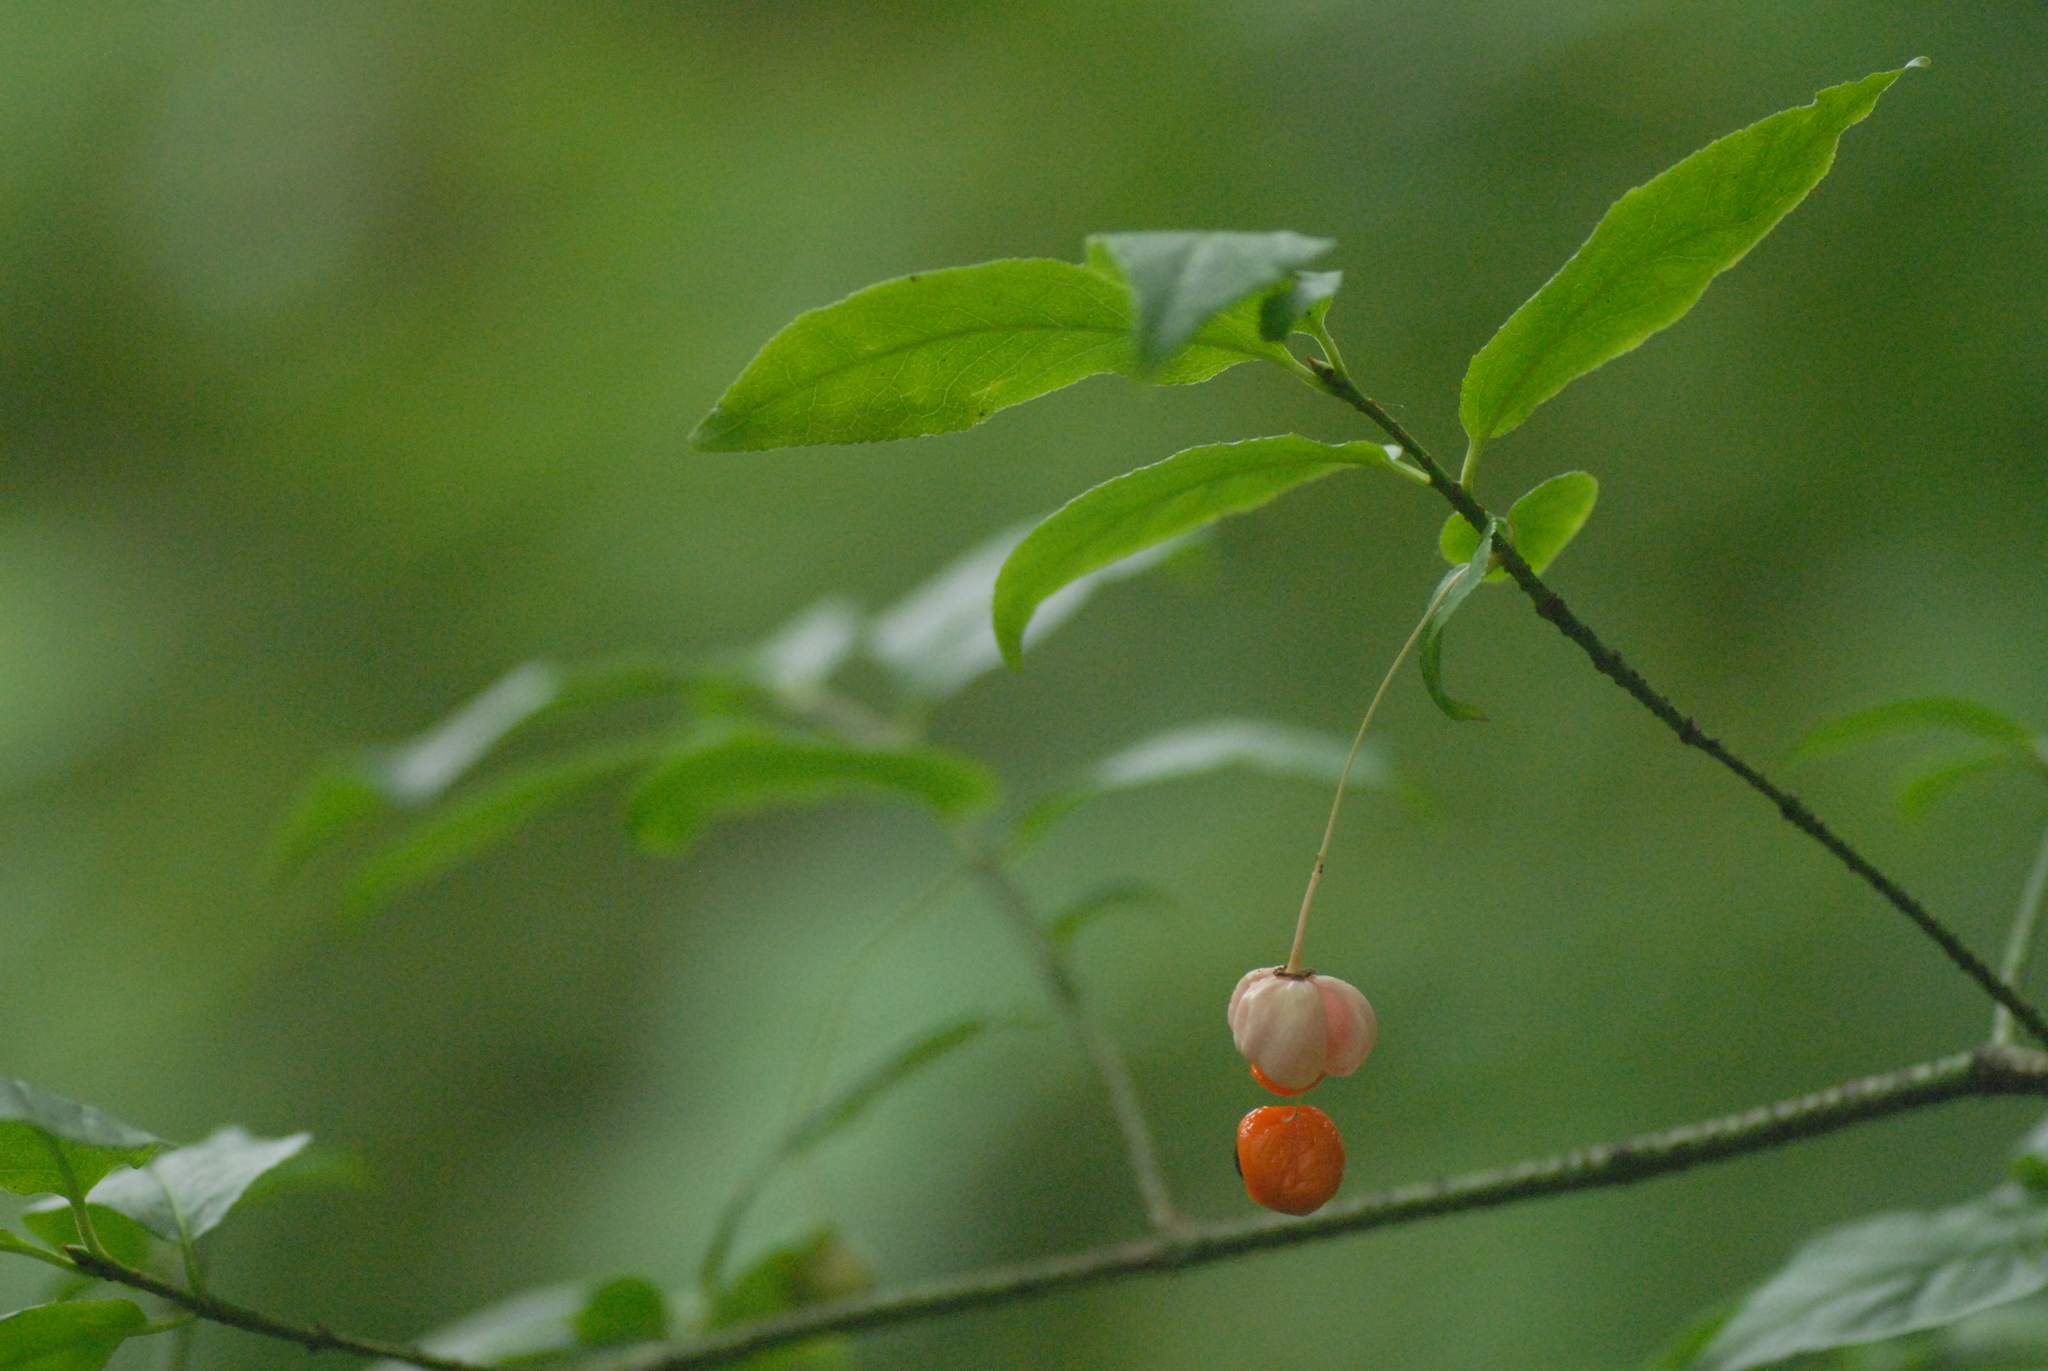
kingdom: Plantae
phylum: Tracheophyta
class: Magnoliopsida
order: Celastrales
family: Celastraceae
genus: Euonymus
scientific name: Euonymus verrucosus
